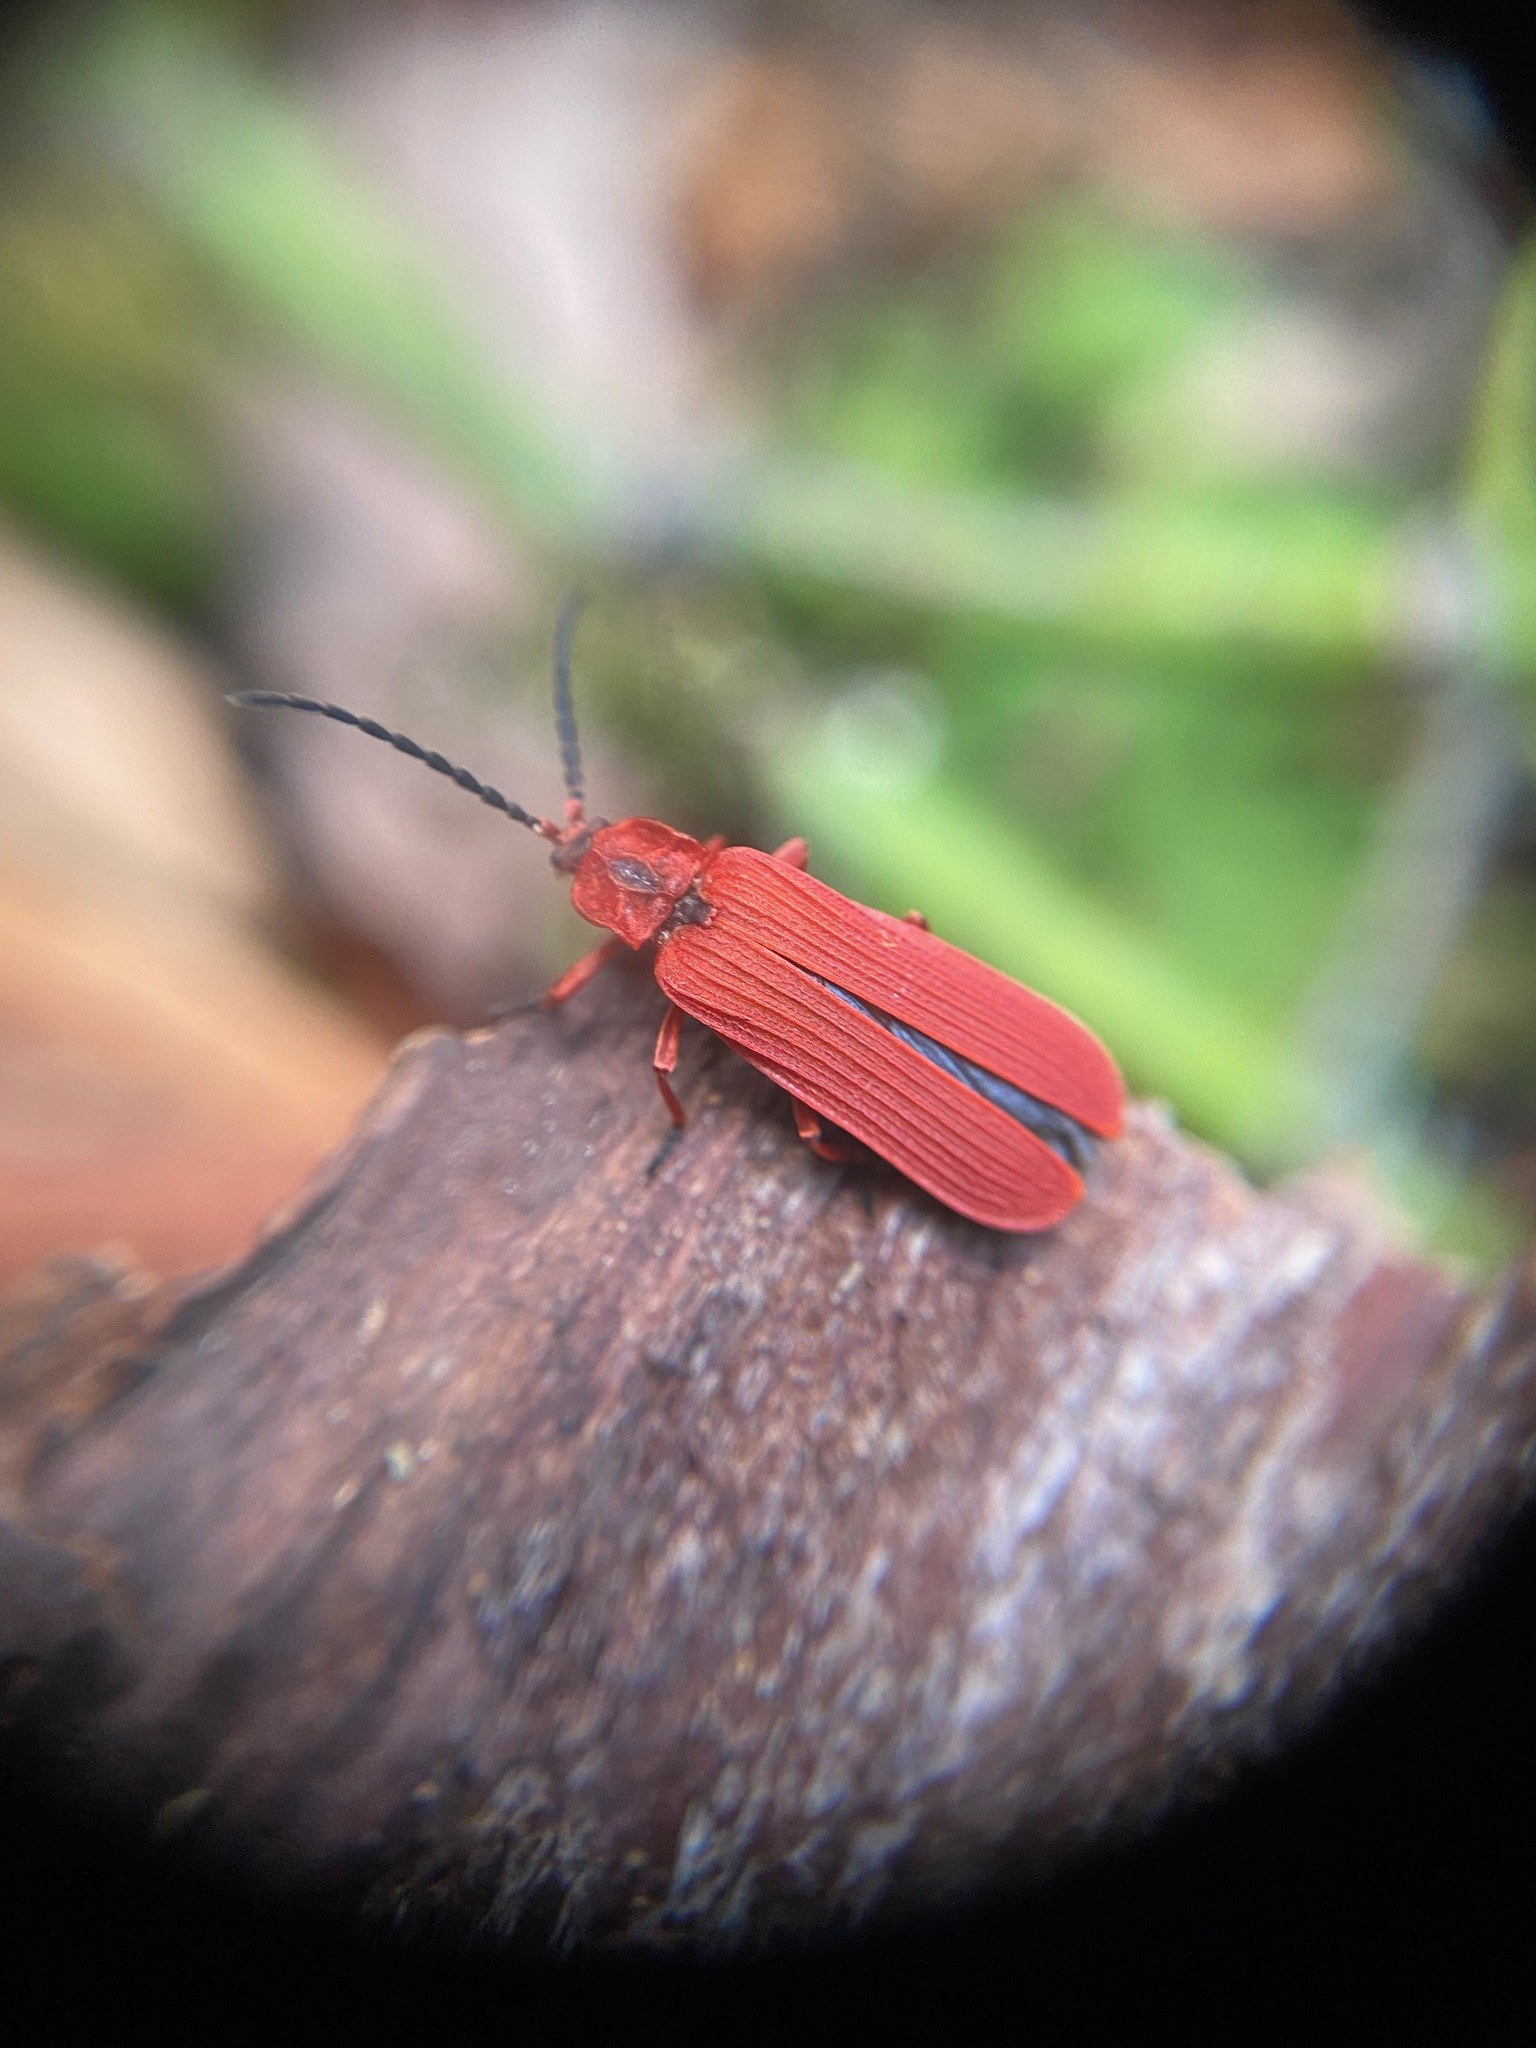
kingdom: Animalia
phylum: Arthropoda
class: Insecta
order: Coleoptera
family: Lycidae
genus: Dictyoptera
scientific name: Dictyoptera simplicipes
